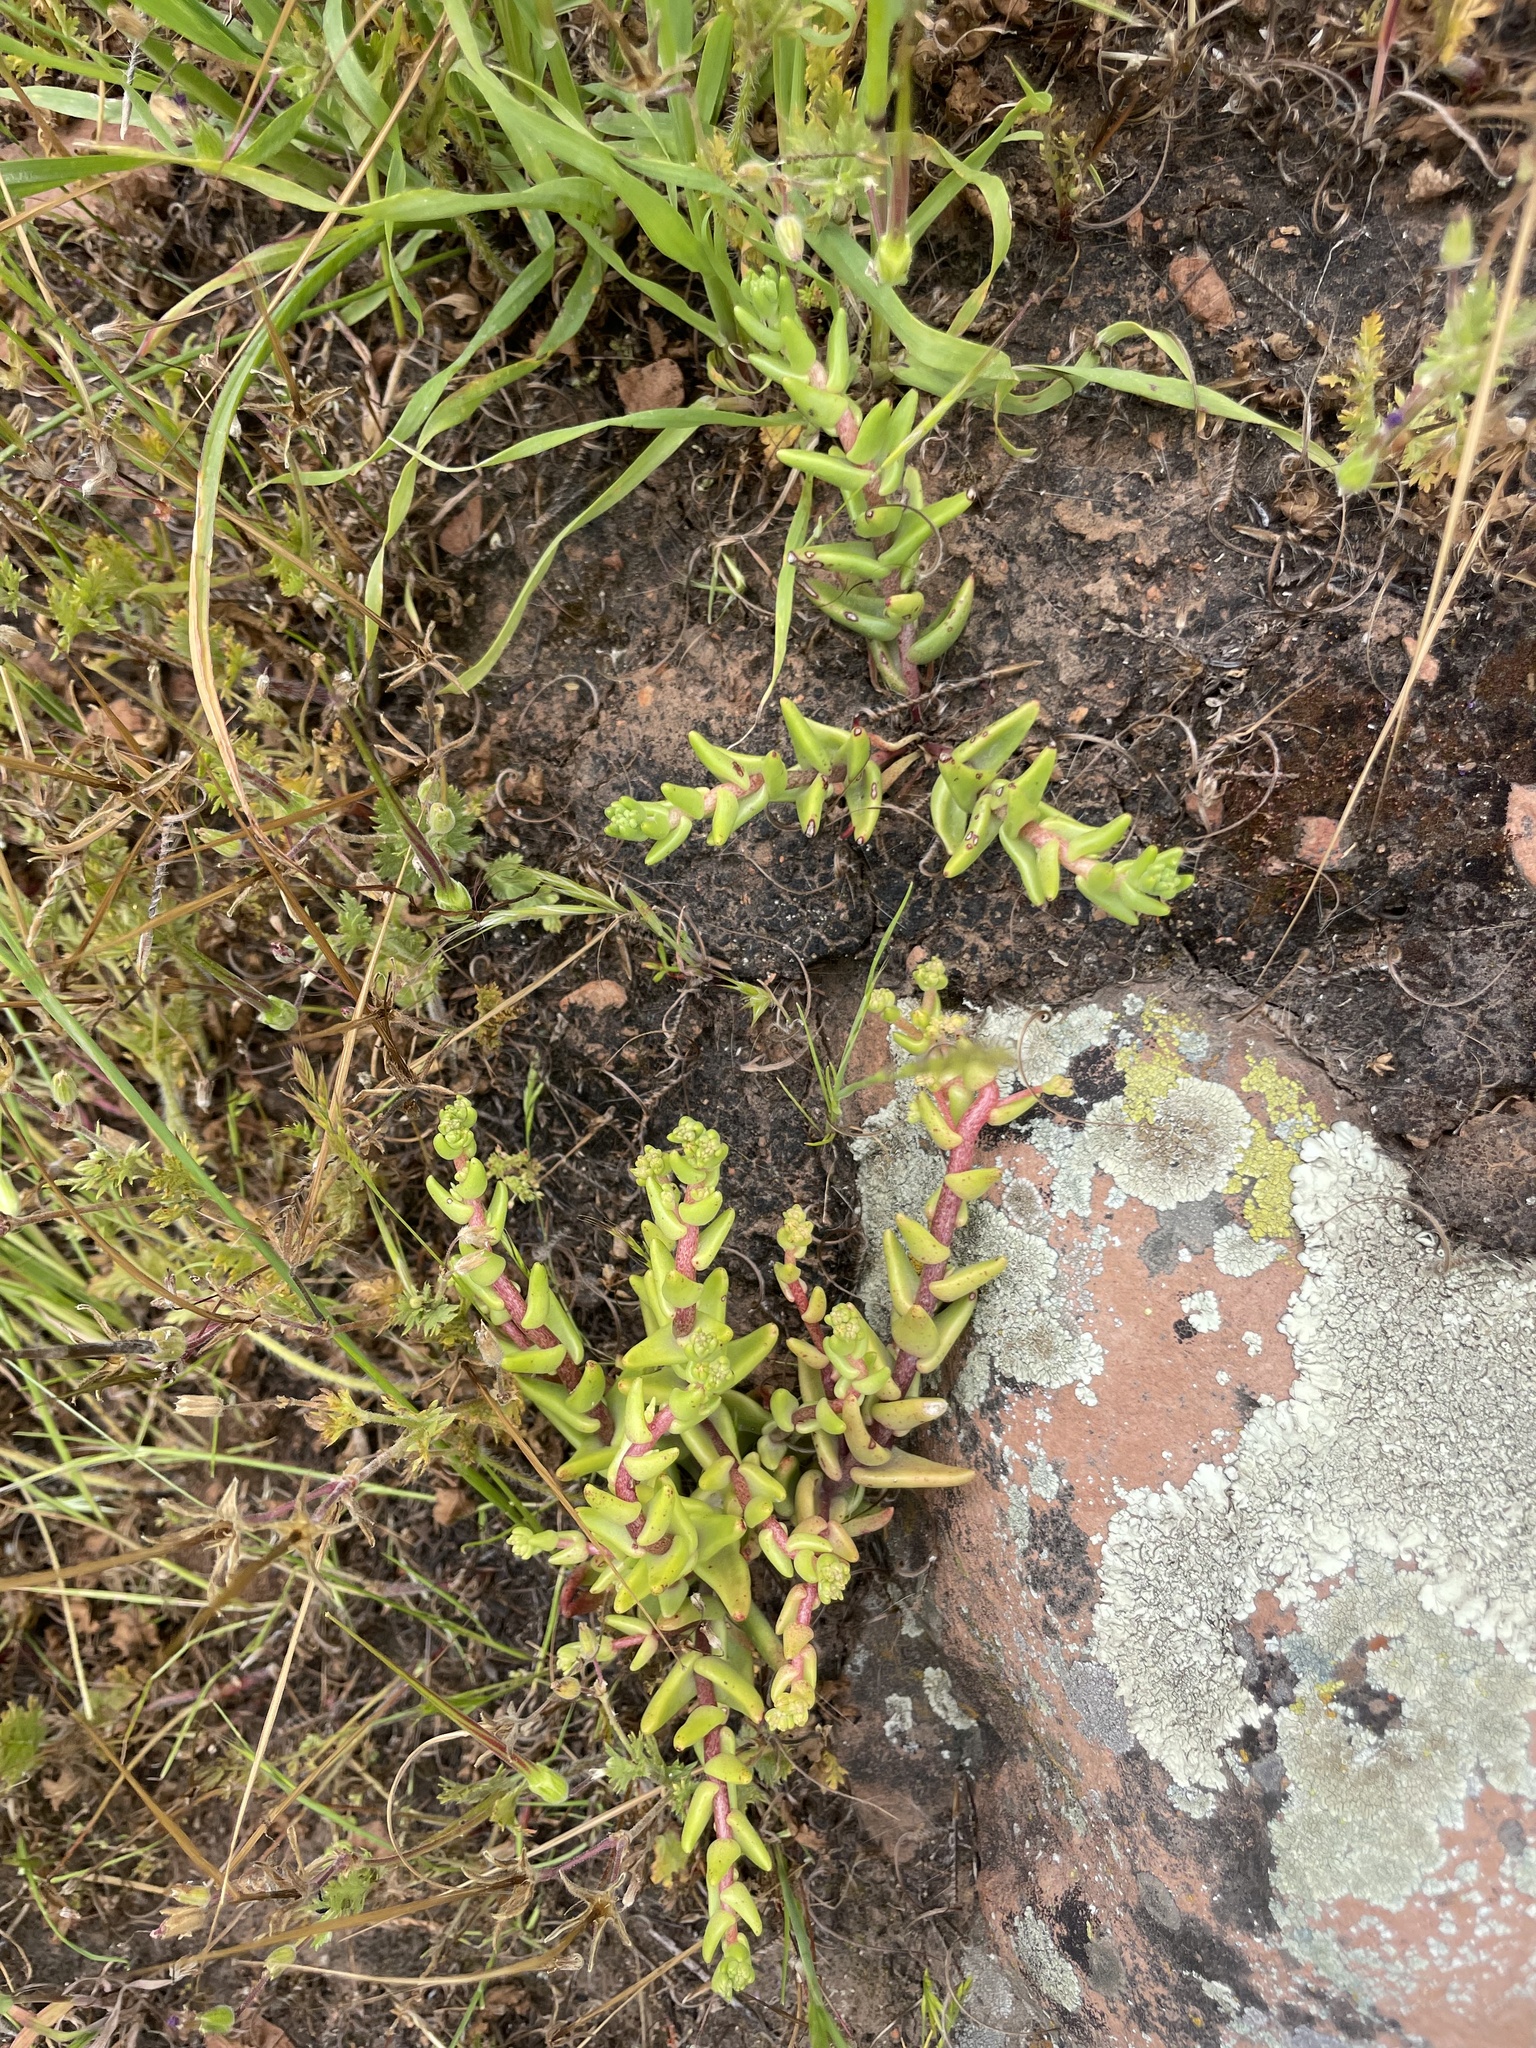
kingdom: Plantae
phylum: Tracheophyta
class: Magnoliopsida
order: Saxifragales
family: Crassulaceae
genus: Dudleya
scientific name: Dudleya variegata
